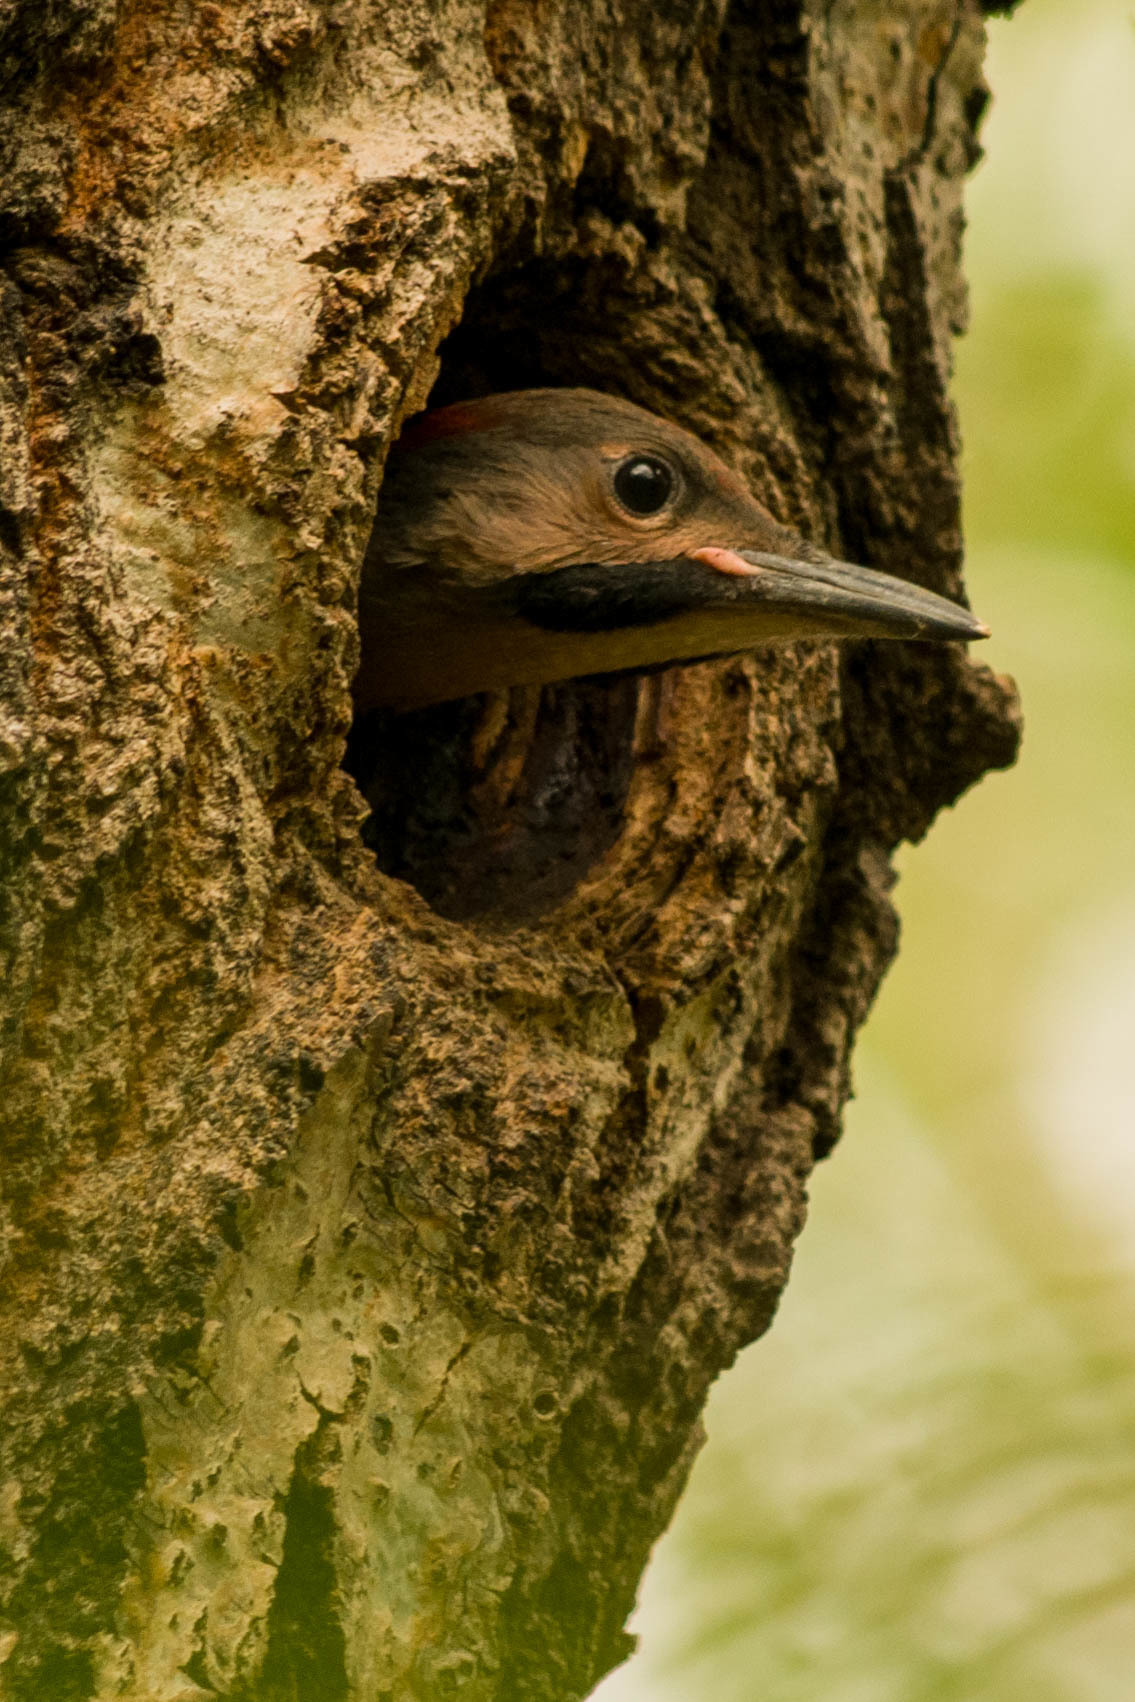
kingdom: Animalia
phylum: Chordata
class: Aves
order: Piciformes
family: Picidae
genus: Colaptes
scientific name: Colaptes auratus
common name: Northern flicker
